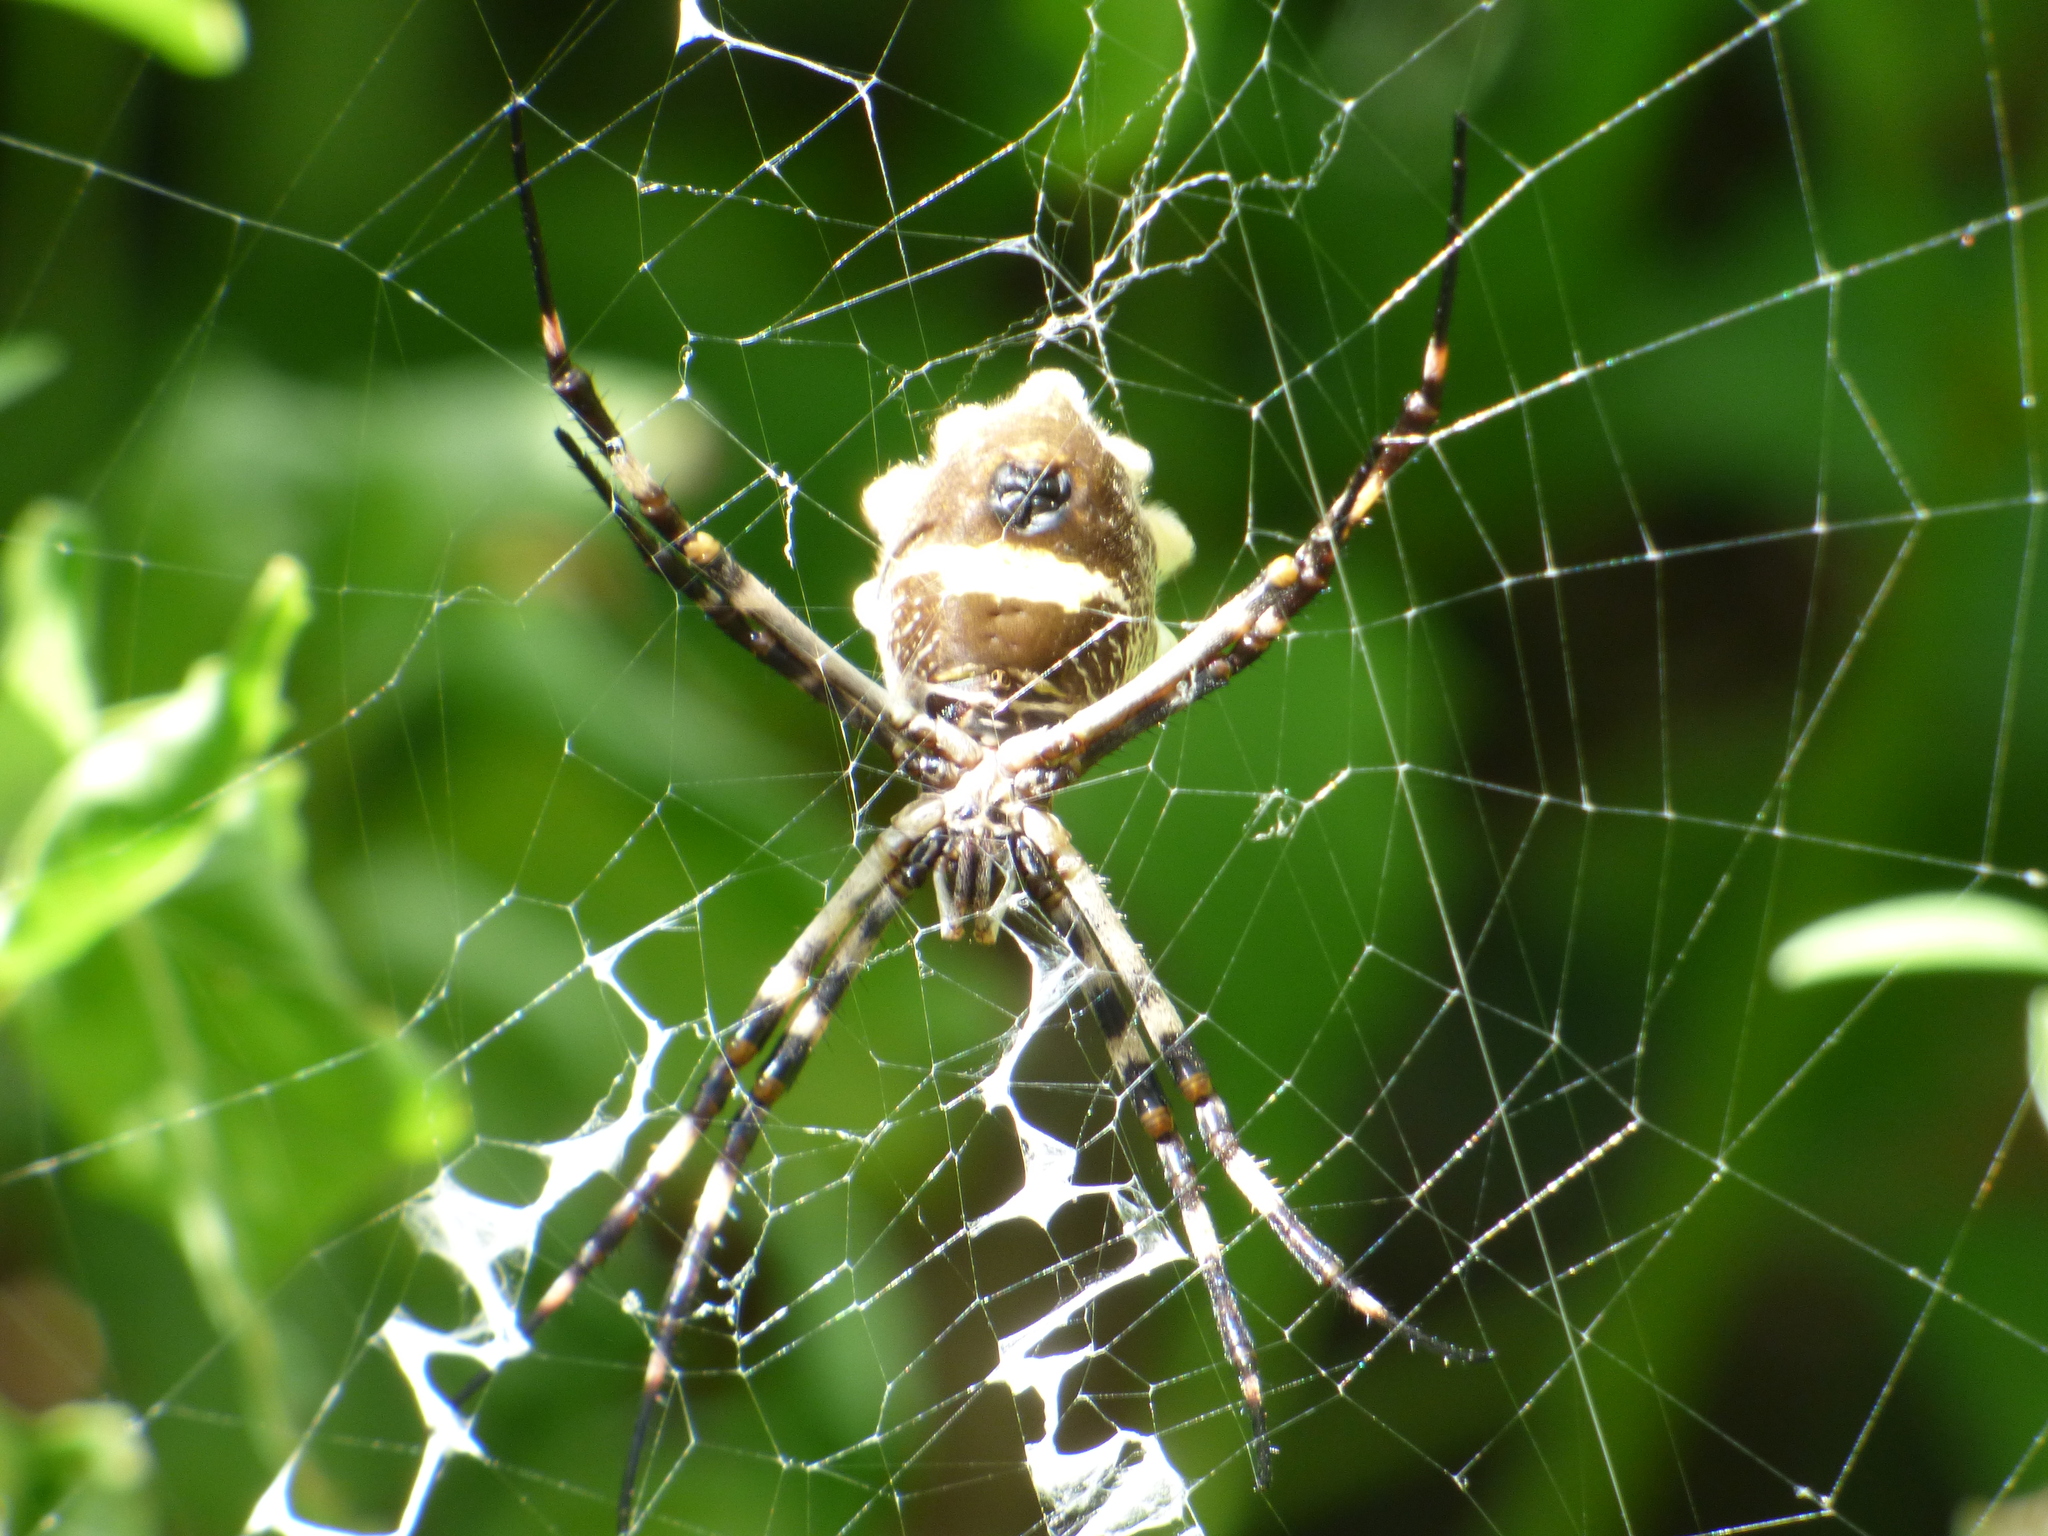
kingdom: Animalia
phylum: Arthropoda
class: Arachnida
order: Araneae
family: Araneidae
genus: Argiope
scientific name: Argiope argentata
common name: Orb weavers
